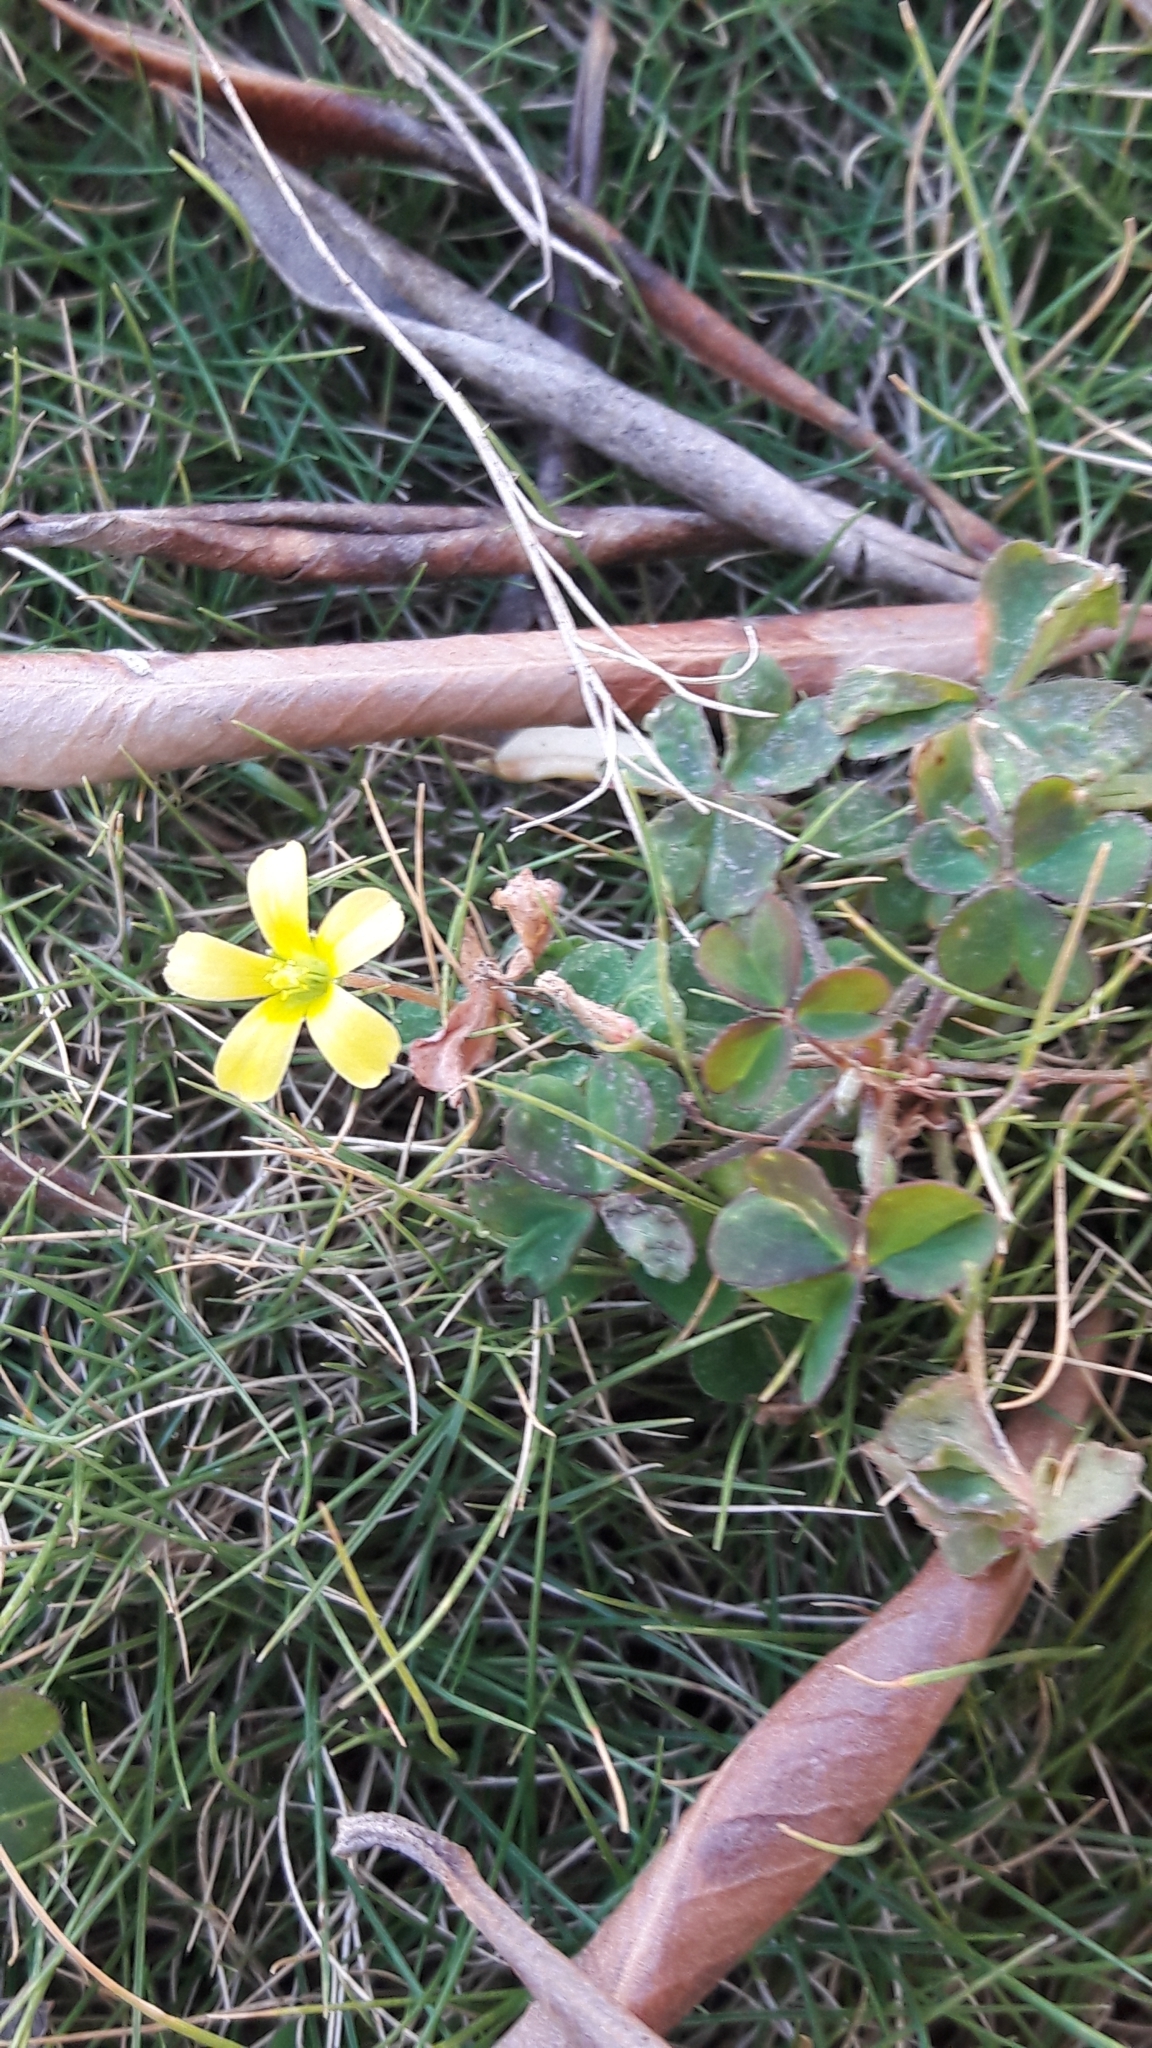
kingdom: Plantae
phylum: Tracheophyta
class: Magnoliopsida
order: Oxalidales
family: Oxalidaceae
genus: Oxalis
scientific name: Oxalis corniculata
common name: Procumbent yellow-sorrel
